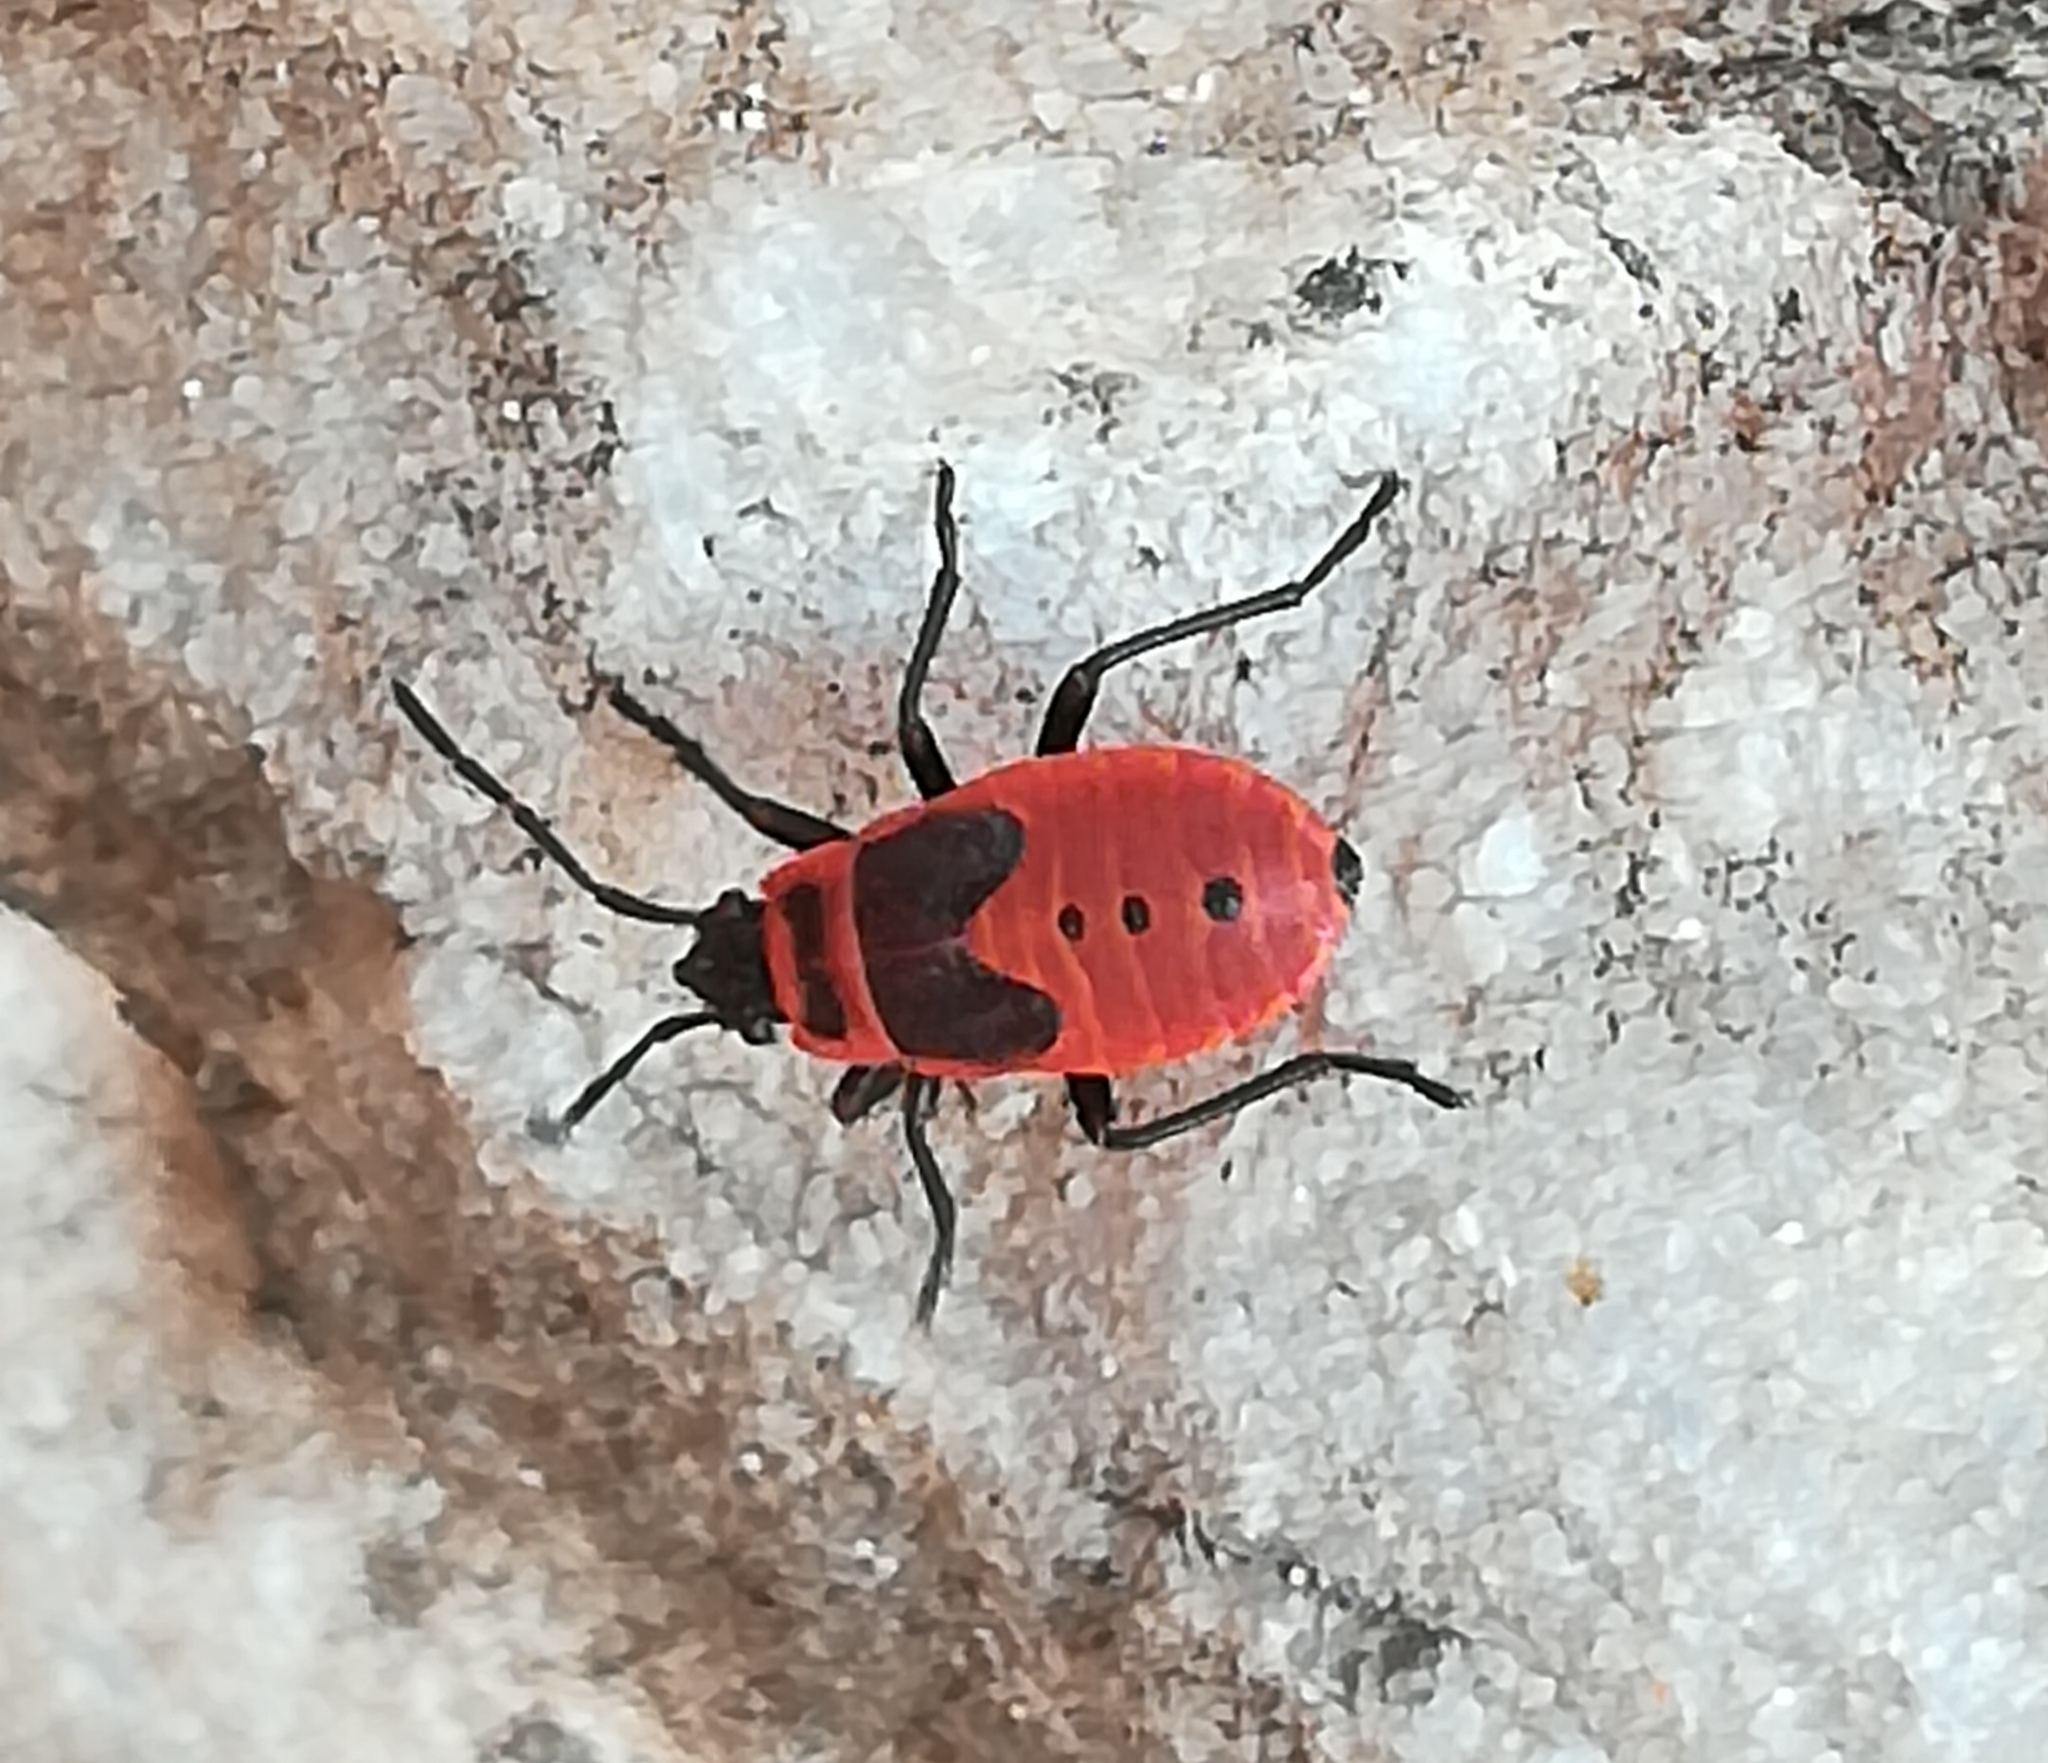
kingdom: Animalia
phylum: Arthropoda
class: Insecta
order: Hemiptera
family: Pyrrhocoridae
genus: Pyrrhocoris
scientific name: Pyrrhocoris apterus
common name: Firebug
